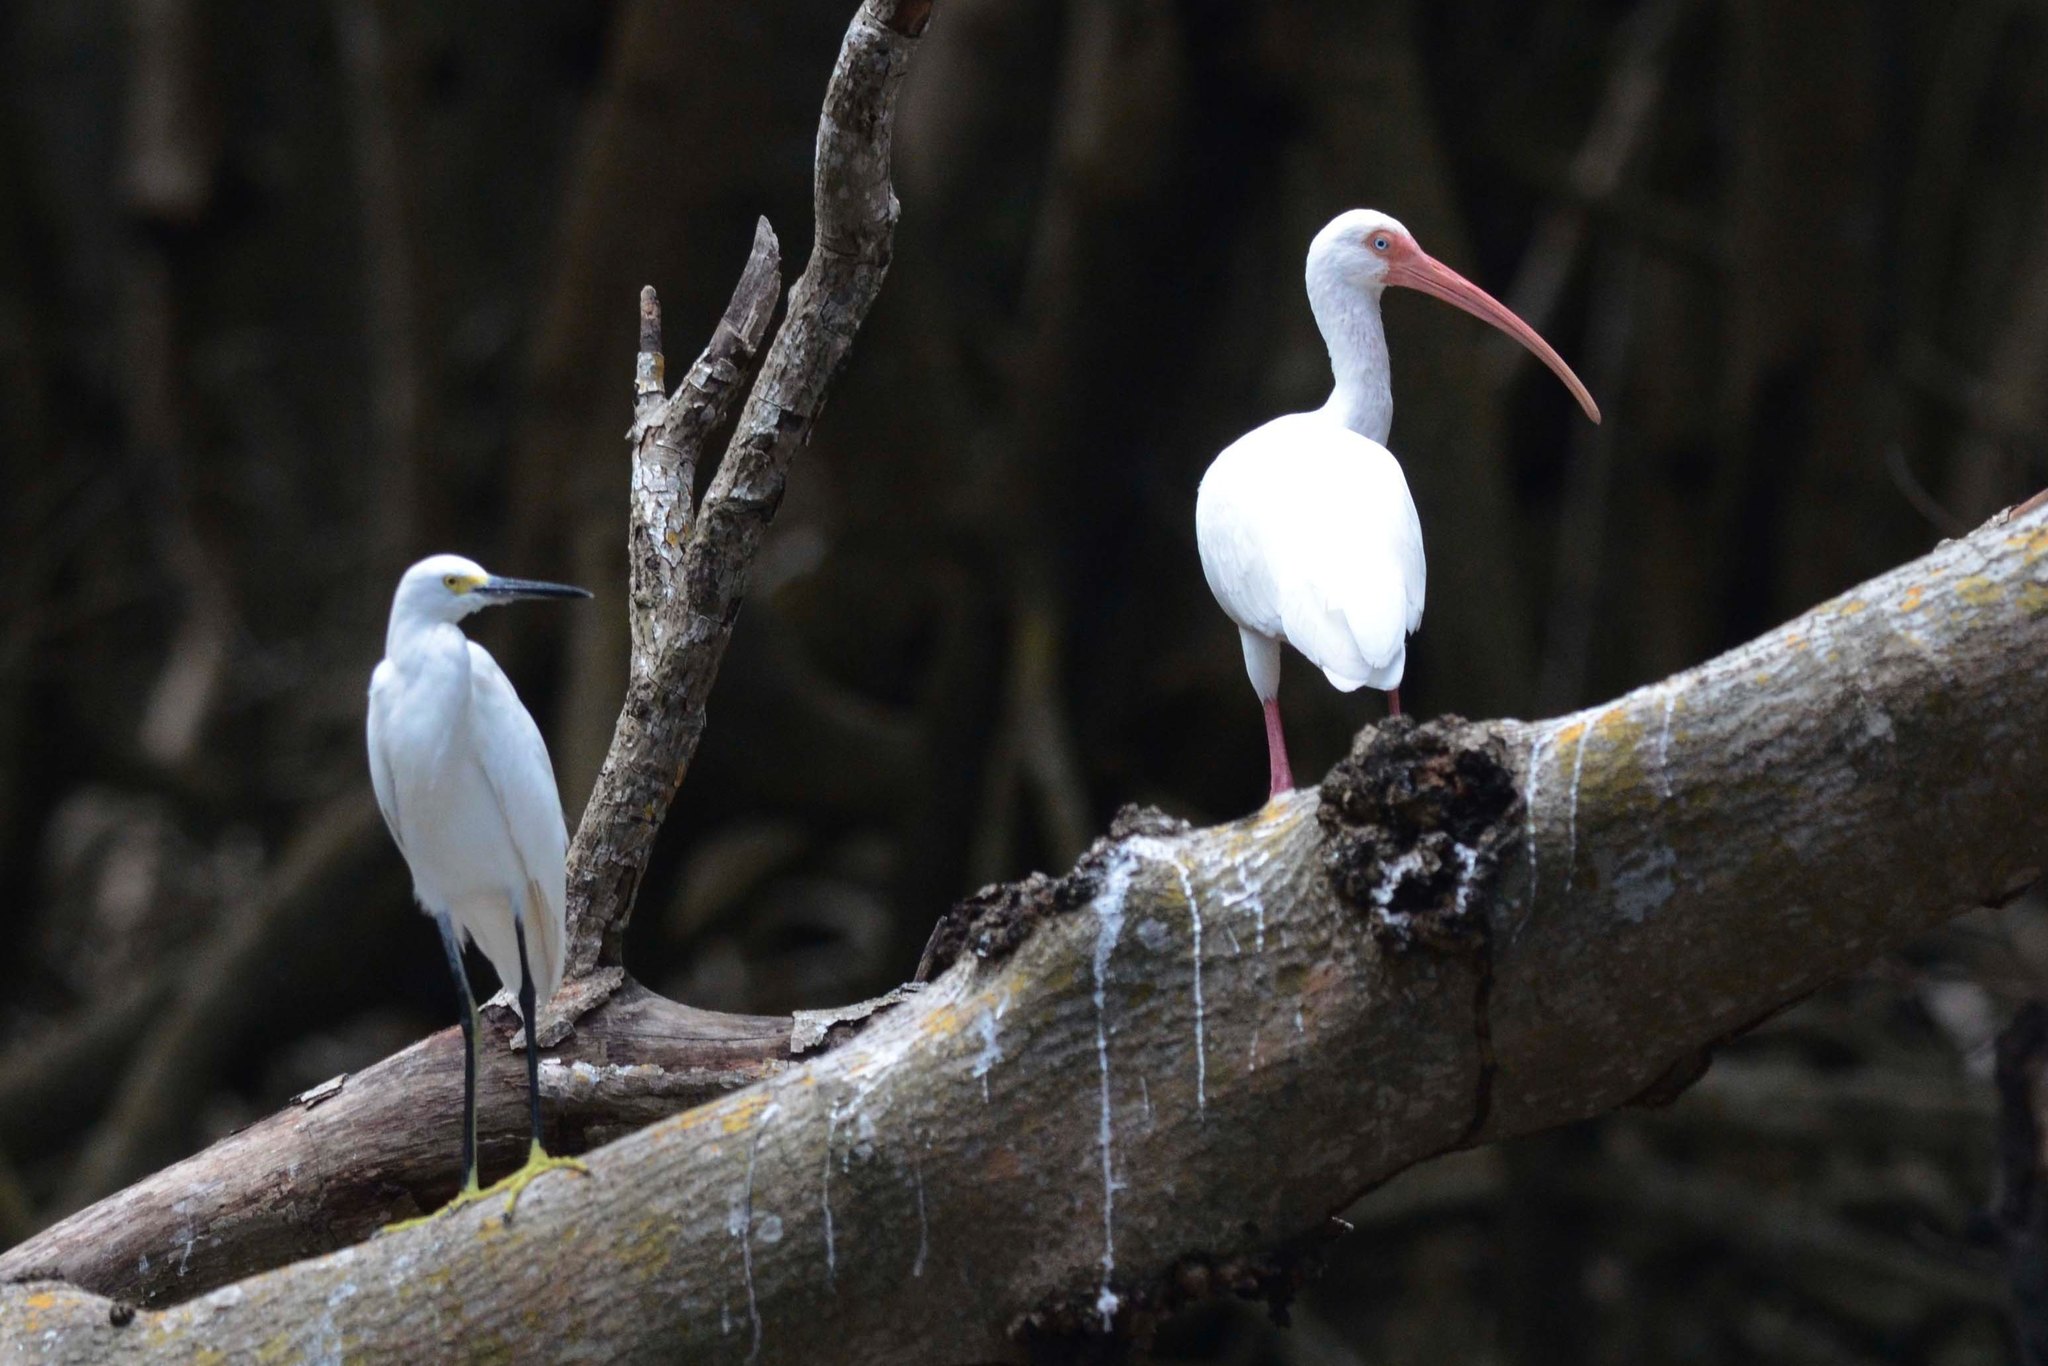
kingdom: Animalia
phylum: Chordata
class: Aves
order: Pelecaniformes
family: Threskiornithidae
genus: Eudocimus
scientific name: Eudocimus albus
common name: White ibis
